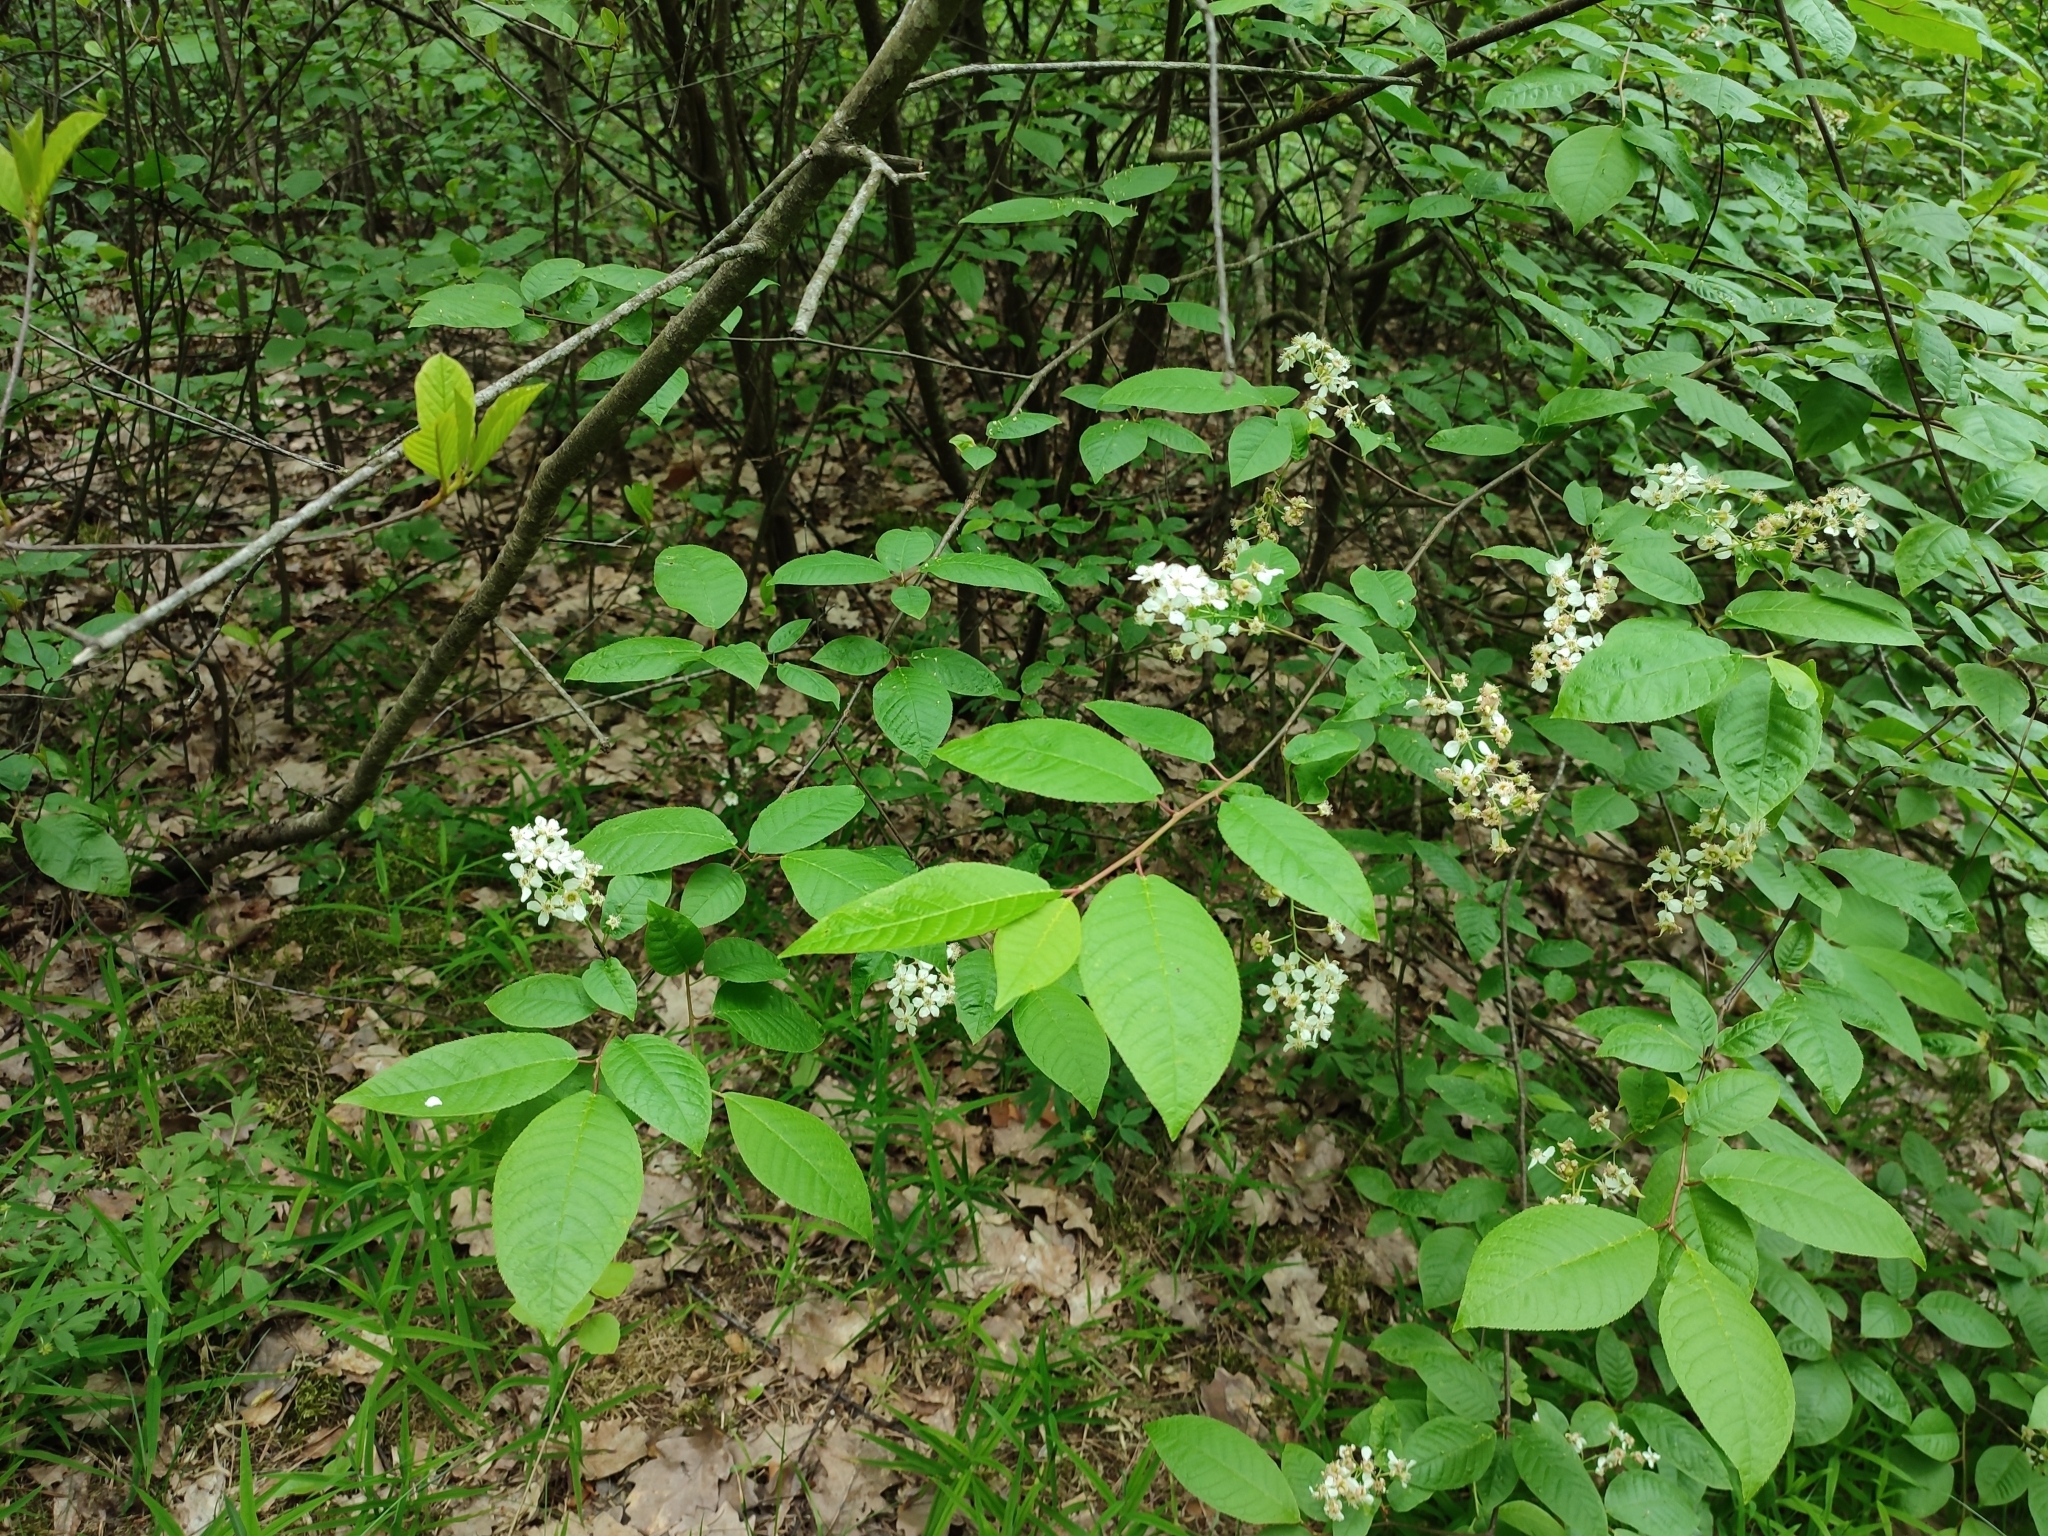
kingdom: Plantae
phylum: Tracheophyta
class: Magnoliopsida
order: Rosales
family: Rosaceae
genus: Prunus
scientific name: Prunus padus
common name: Bird cherry
